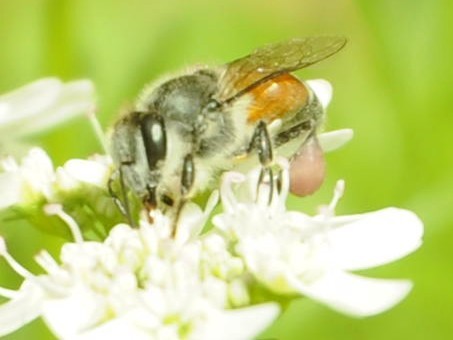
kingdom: Animalia
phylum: Arthropoda
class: Insecta
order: Hymenoptera
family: Apidae
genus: Apis
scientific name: Apis florea
